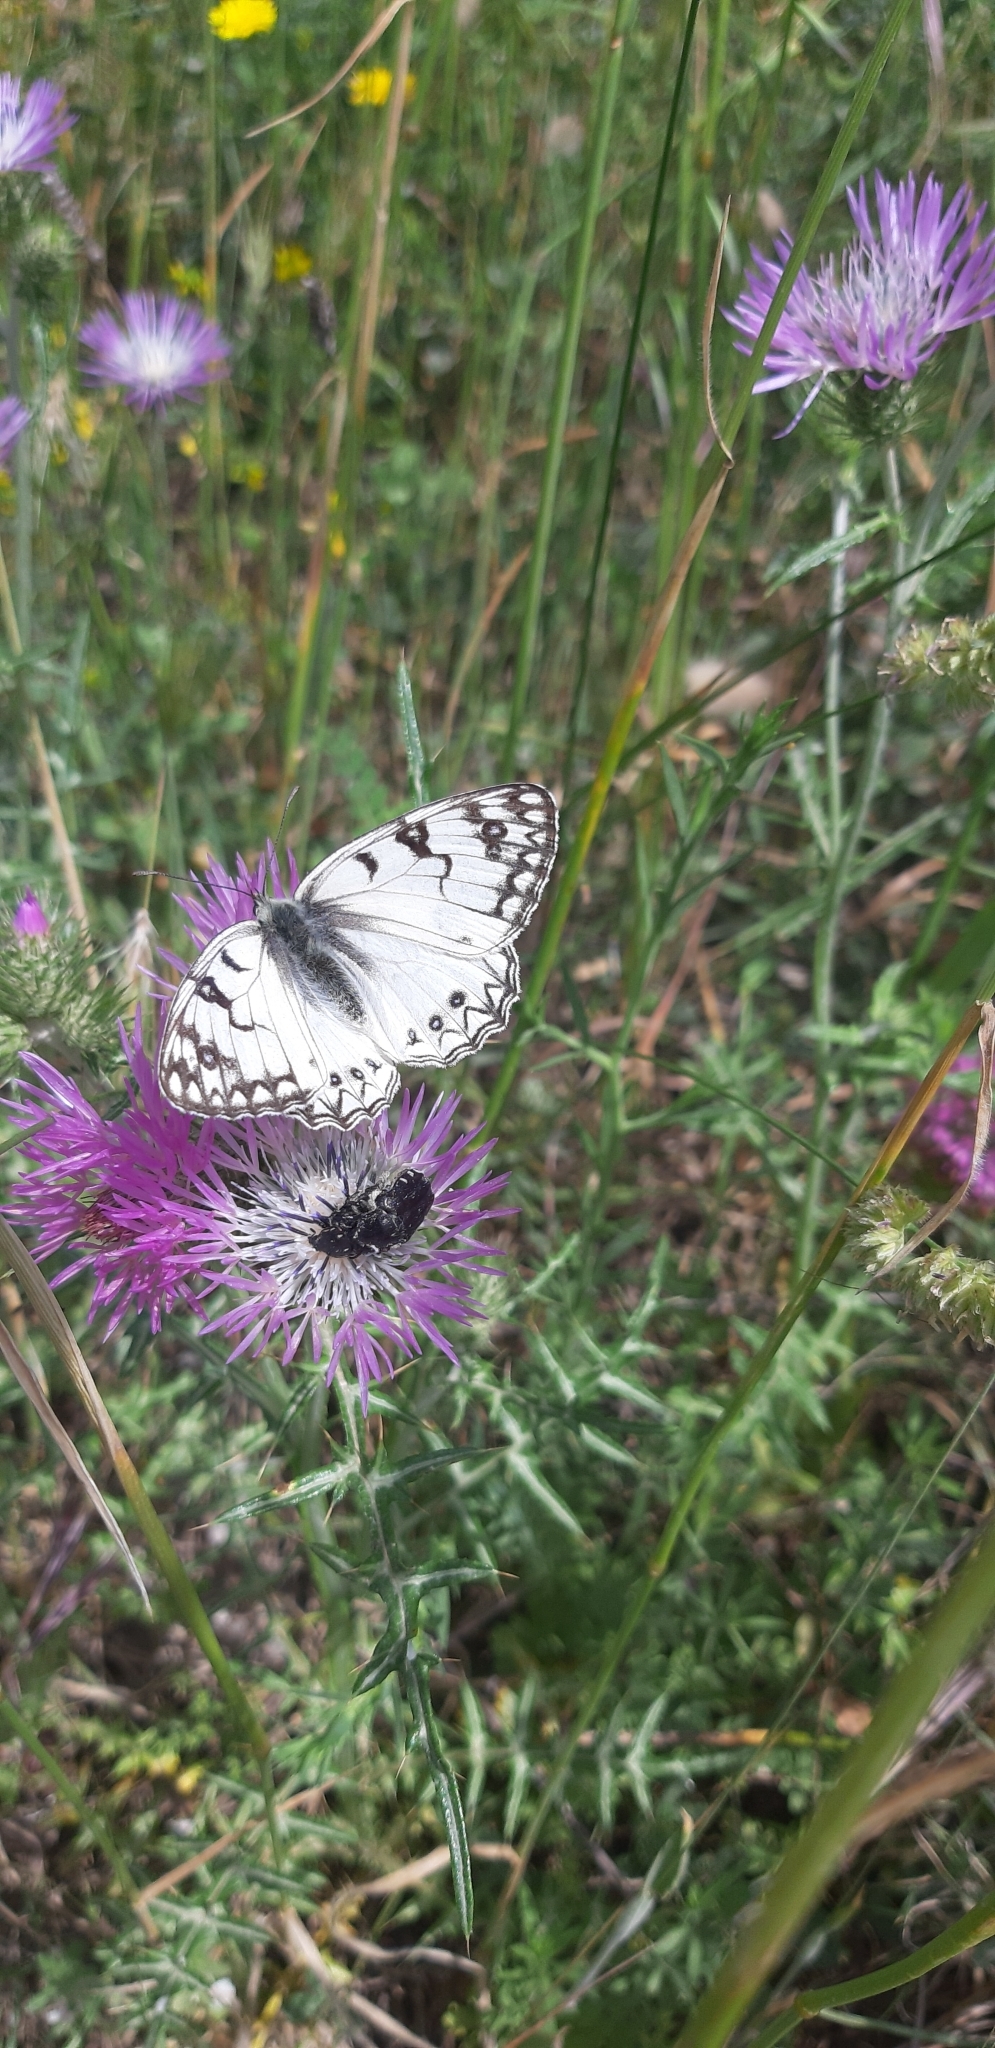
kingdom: Animalia
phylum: Arthropoda
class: Insecta
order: Lepidoptera
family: Nymphalidae
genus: Melanargia
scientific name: Melanargia arge
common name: Italian marbled white
